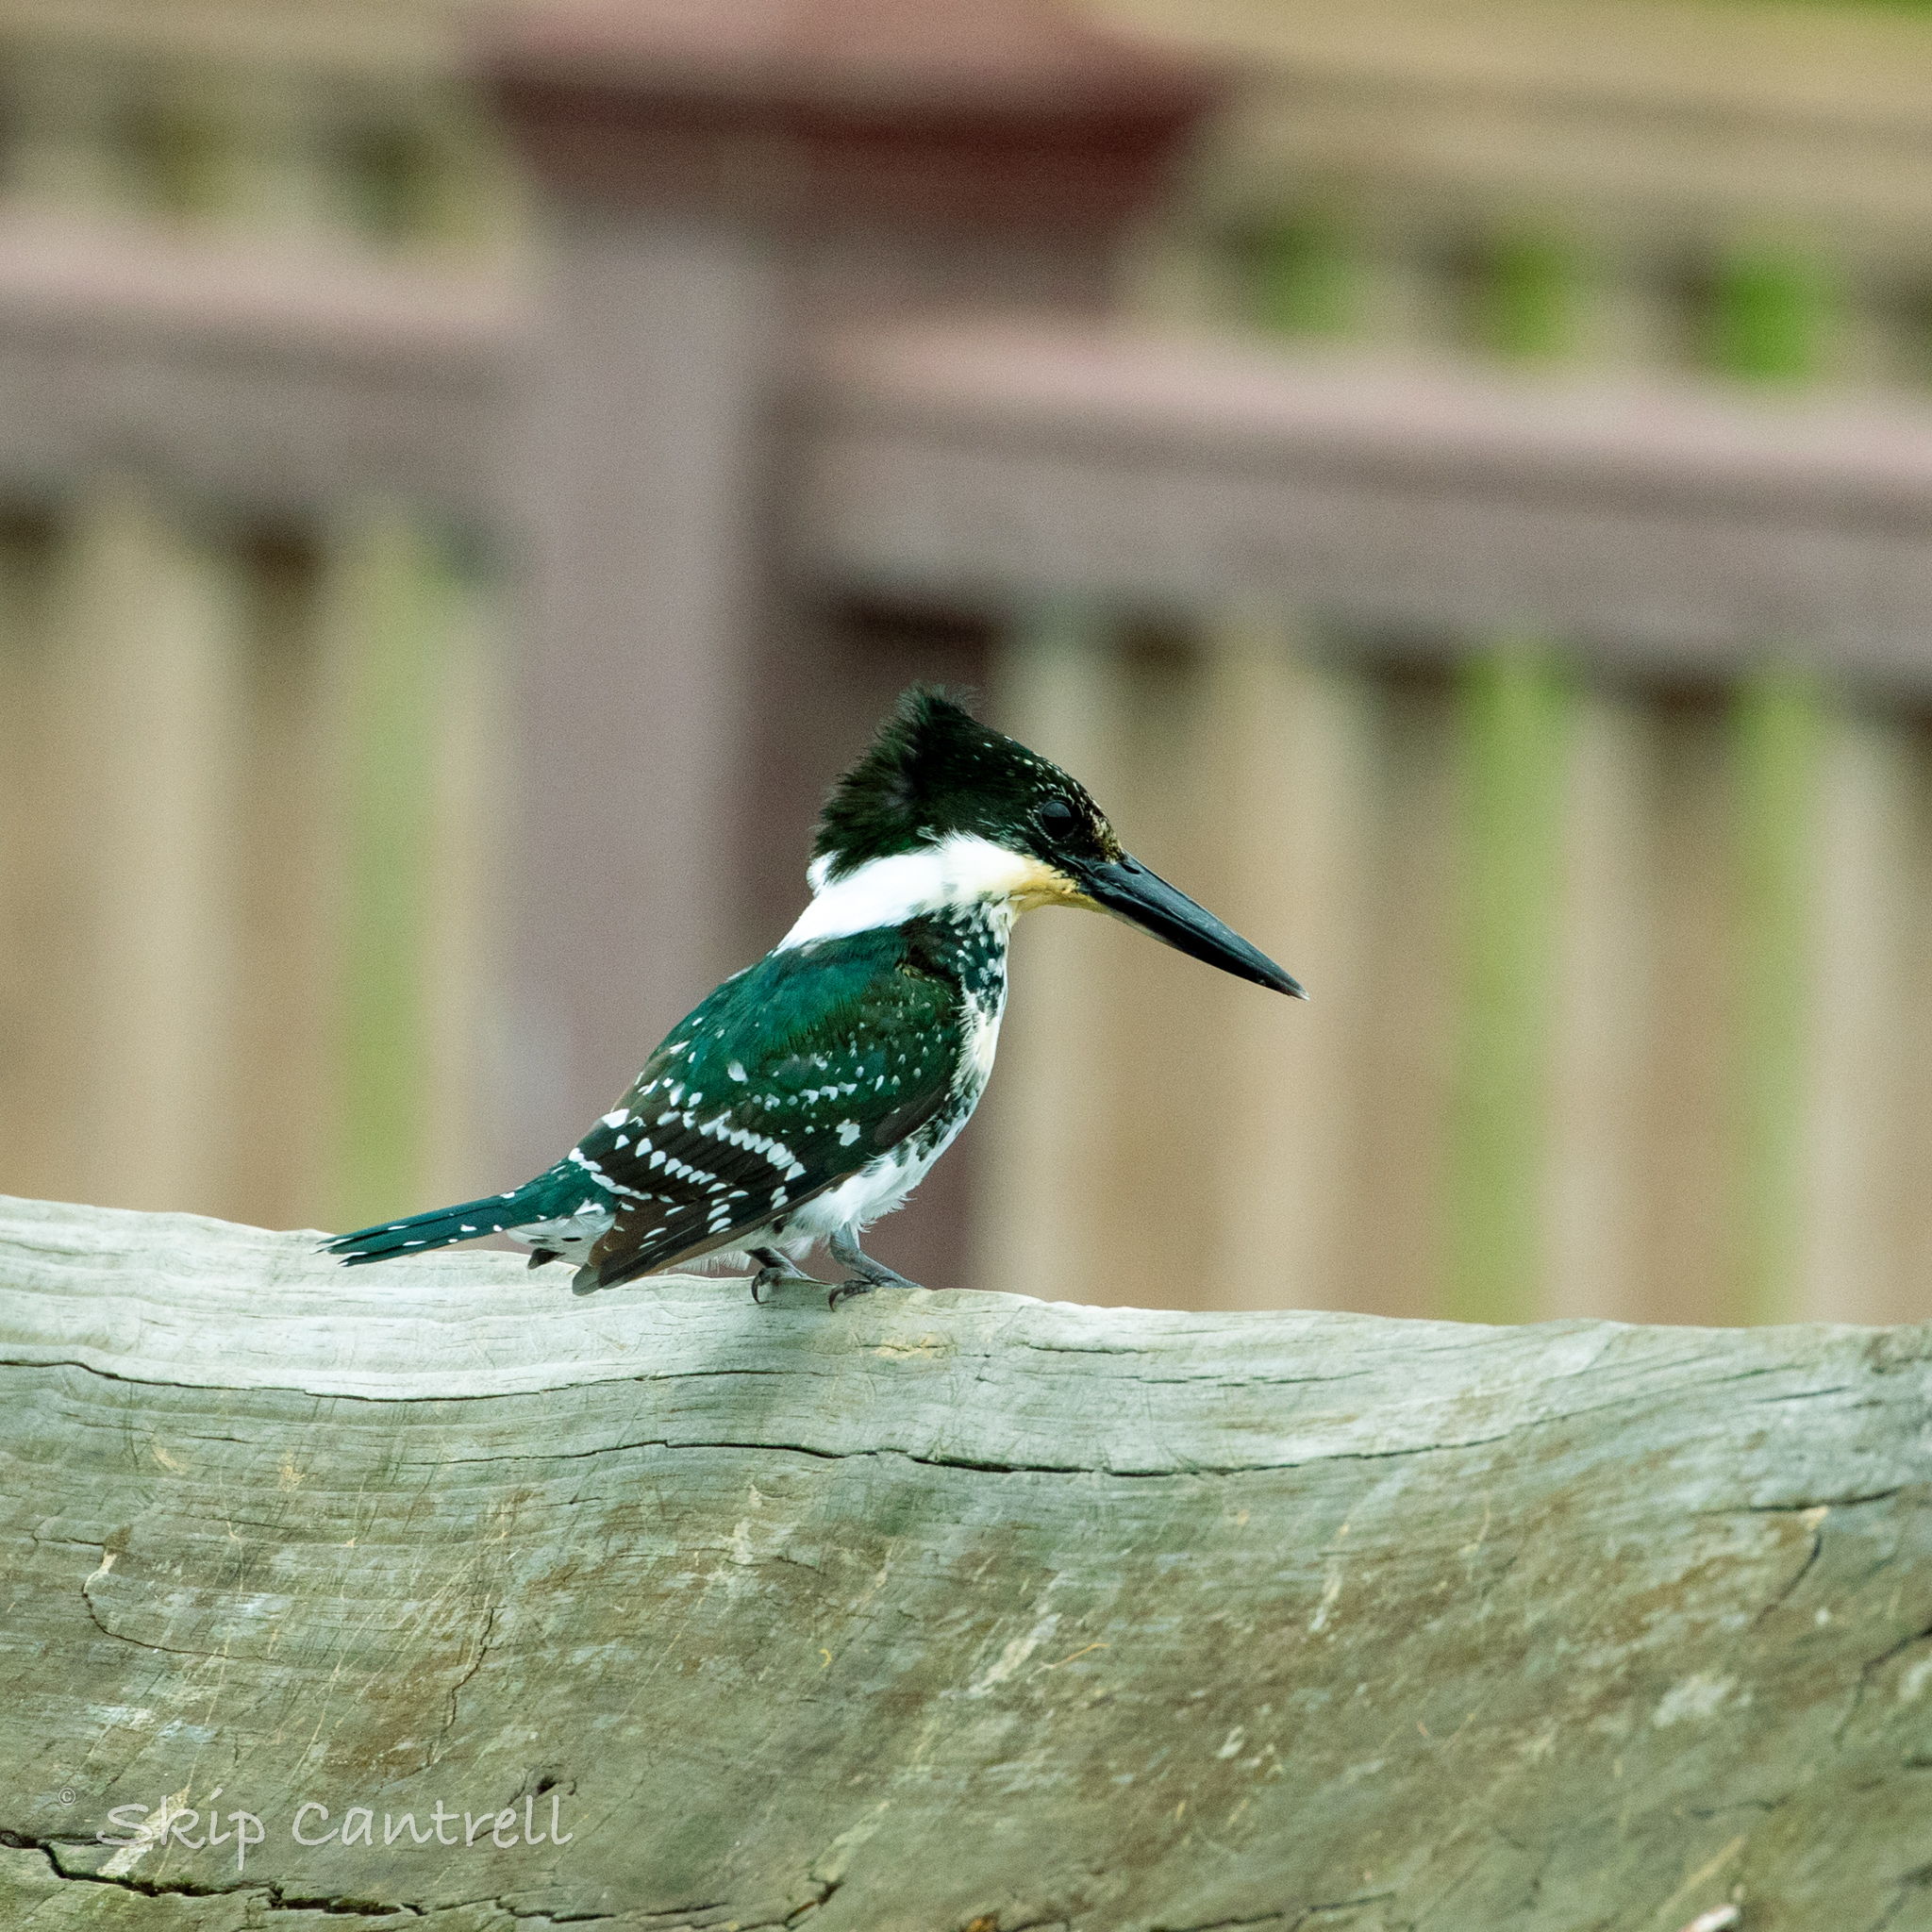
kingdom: Animalia
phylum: Chordata
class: Aves
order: Coraciiformes
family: Alcedinidae
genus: Chloroceryle
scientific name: Chloroceryle americana
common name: Green kingfisher
